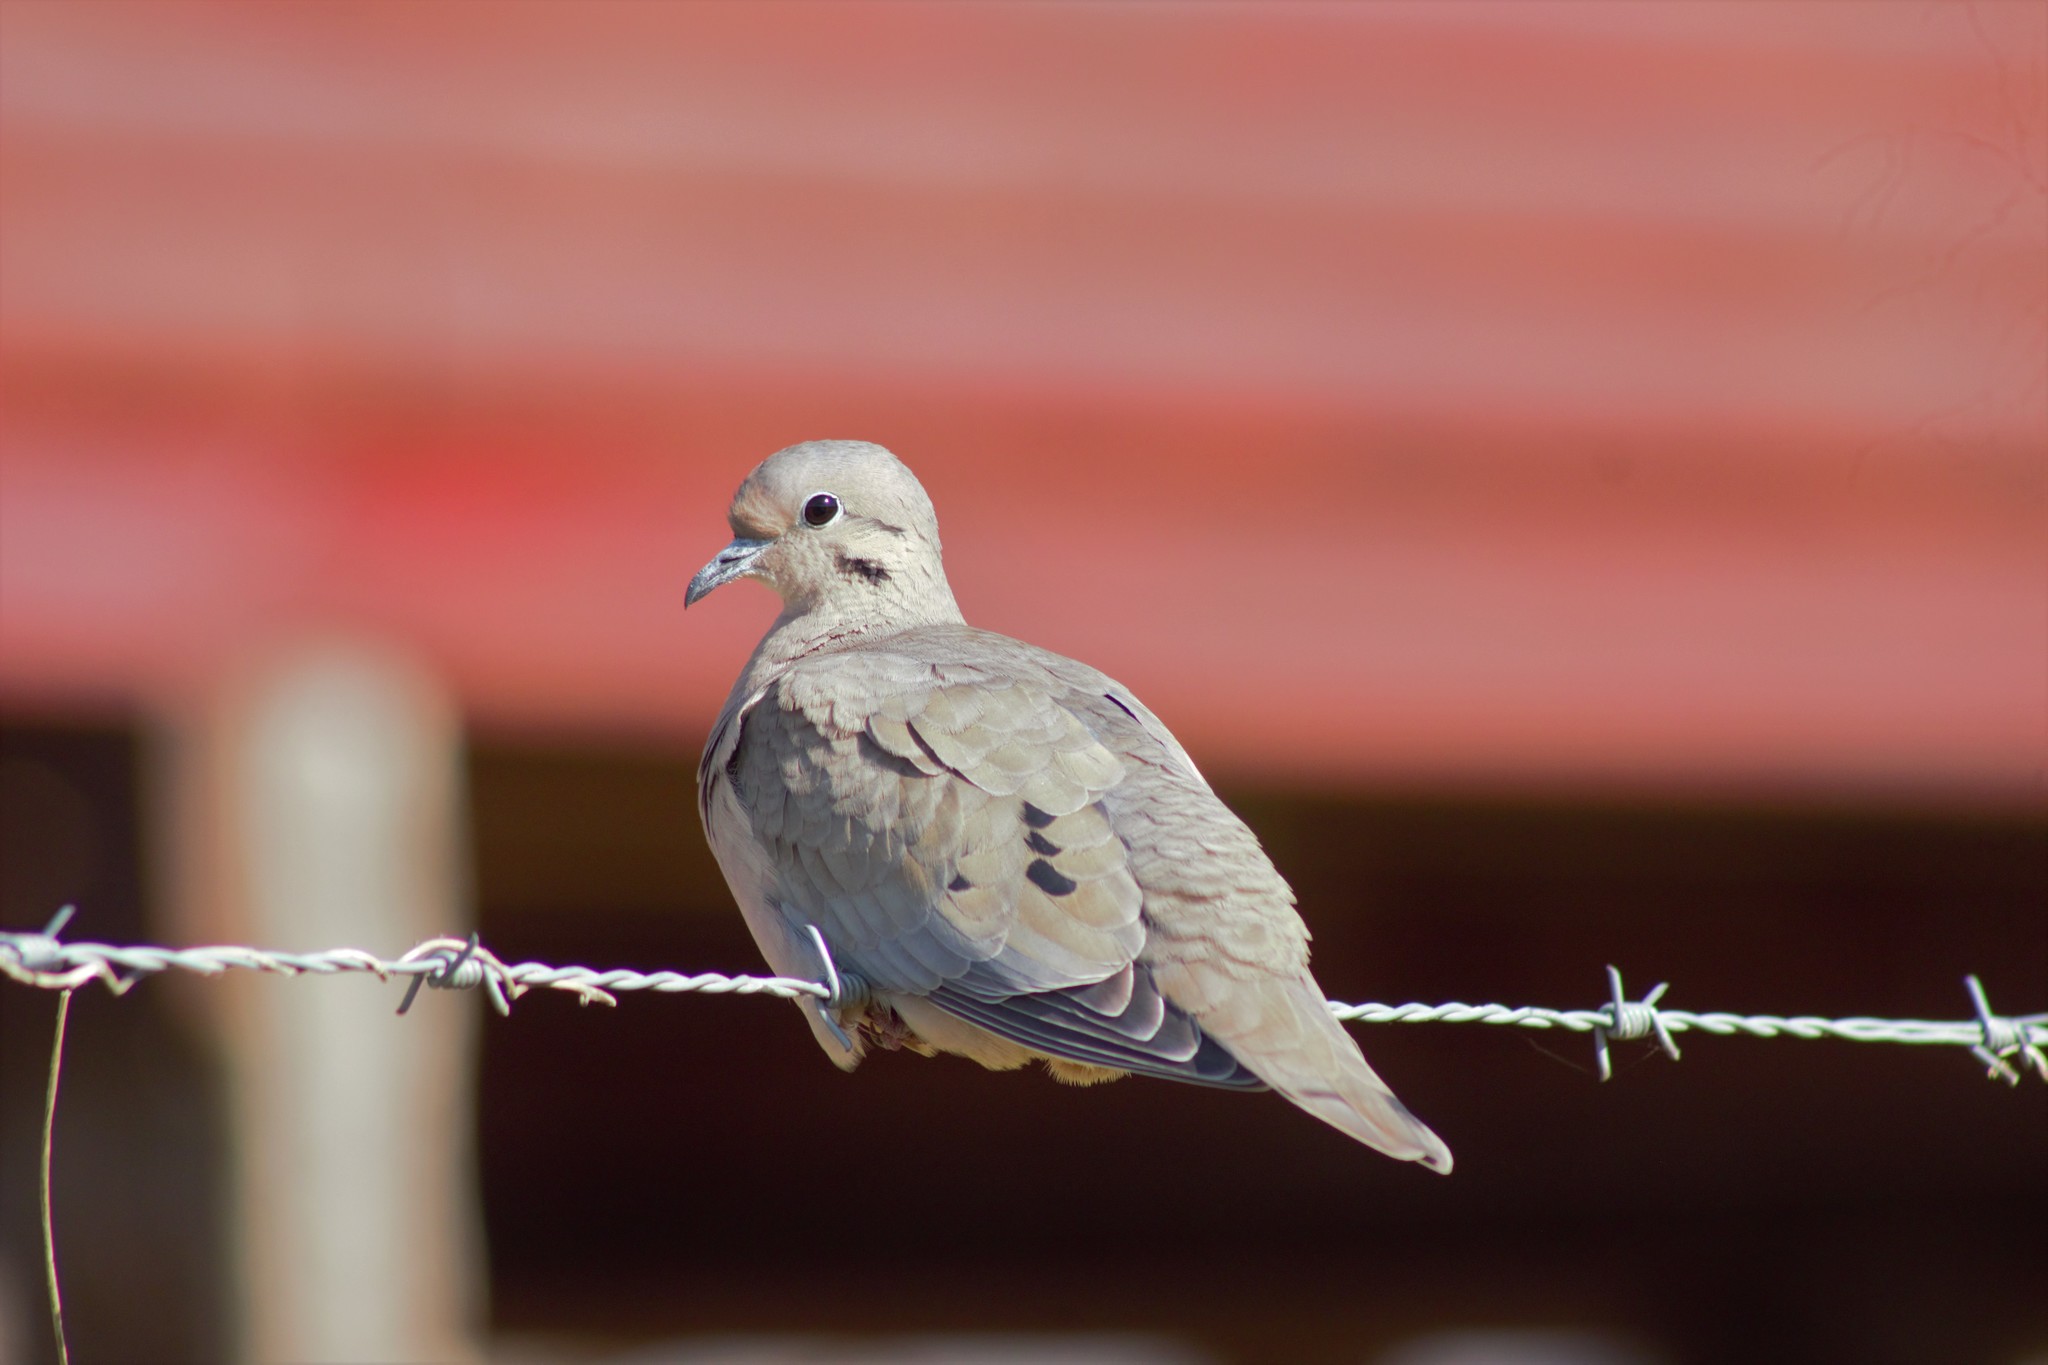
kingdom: Animalia
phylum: Chordata
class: Aves
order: Columbiformes
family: Columbidae
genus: Zenaida
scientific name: Zenaida auriculata
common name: Eared dove
